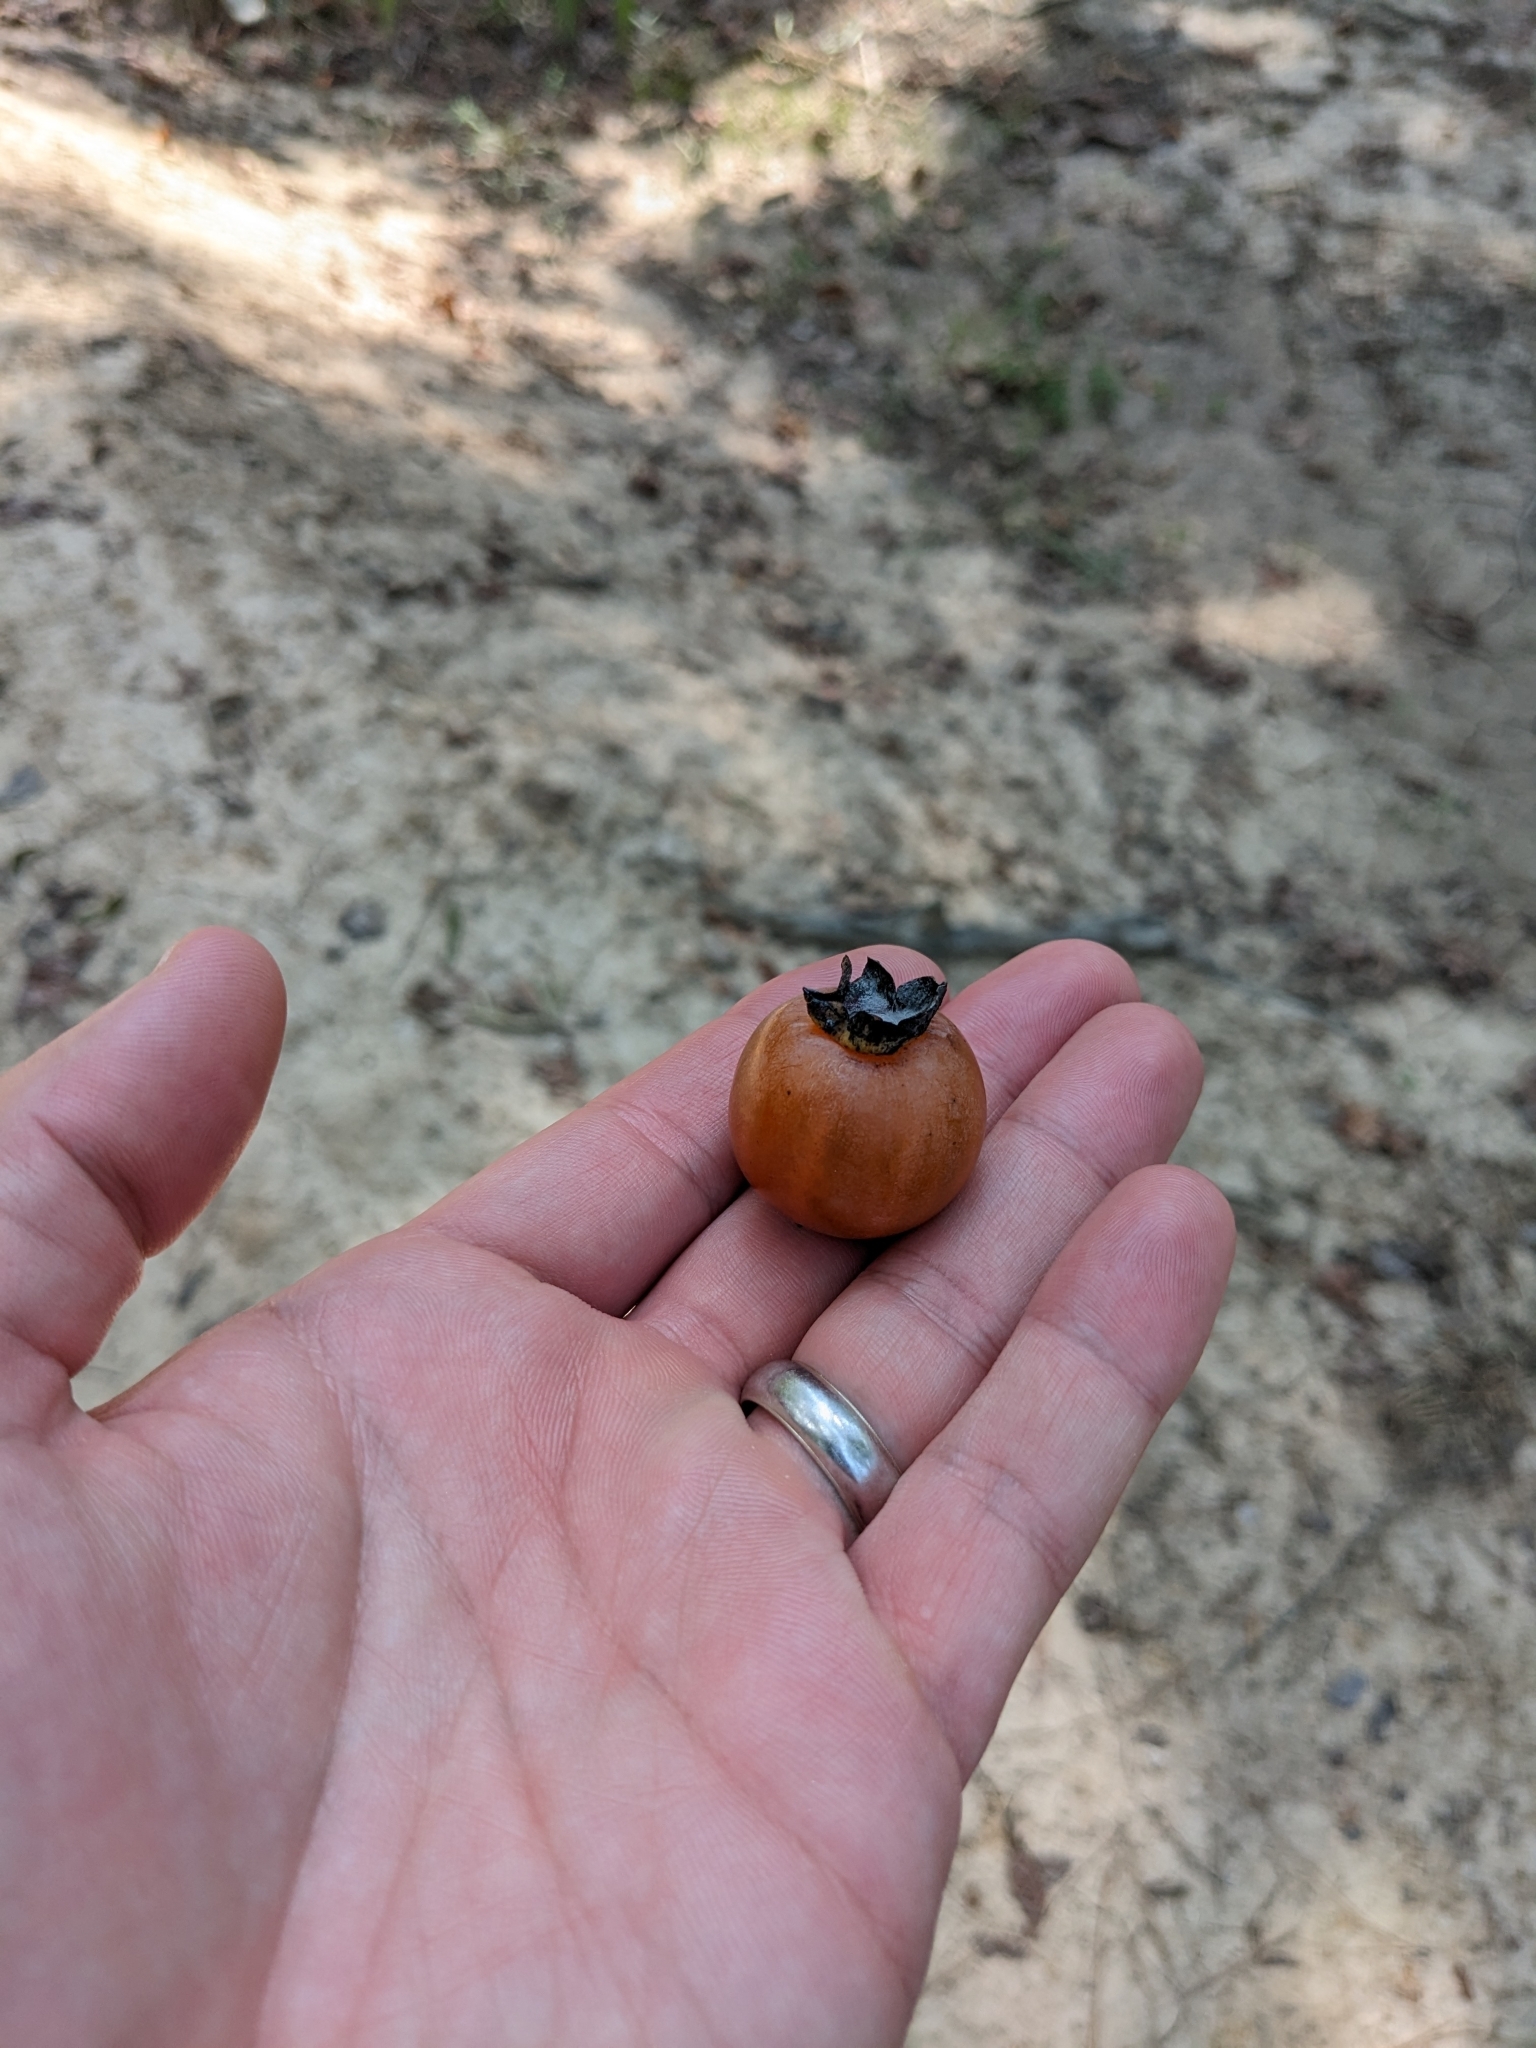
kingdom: Plantae
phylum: Tracheophyta
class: Magnoliopsida
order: Ericales
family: Ebenaceae
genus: Diospyros
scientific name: Diospyros virginiana
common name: Persimmon
